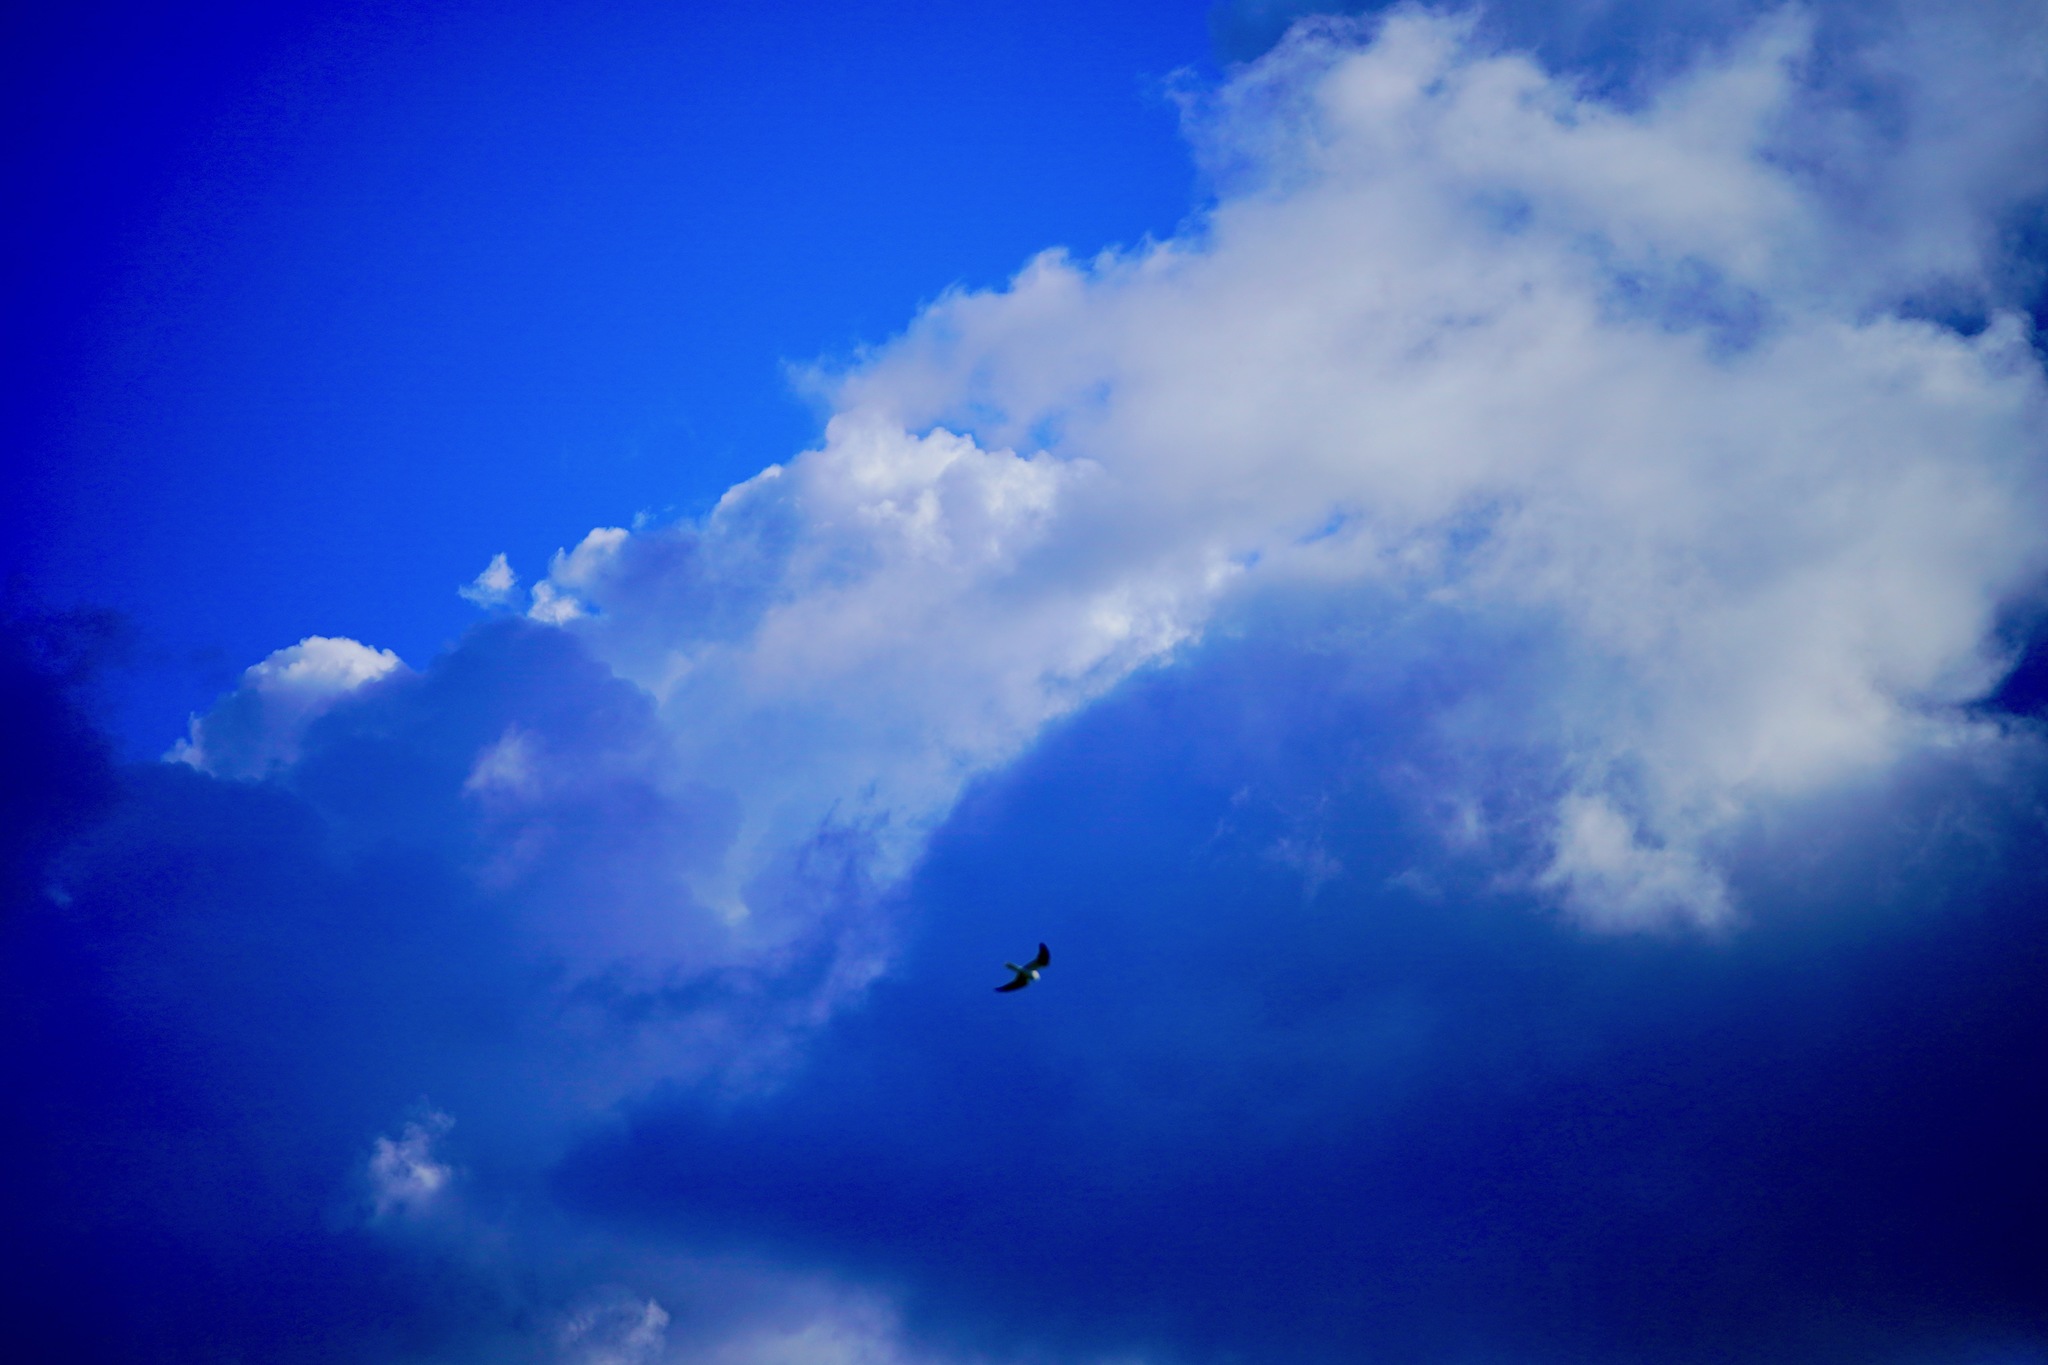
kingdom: Animalia
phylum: Chordata
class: Aves
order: Accipitriformes
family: Accipitridae
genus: Elanus
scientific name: Elanus leucurus
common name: White-tailed kite
